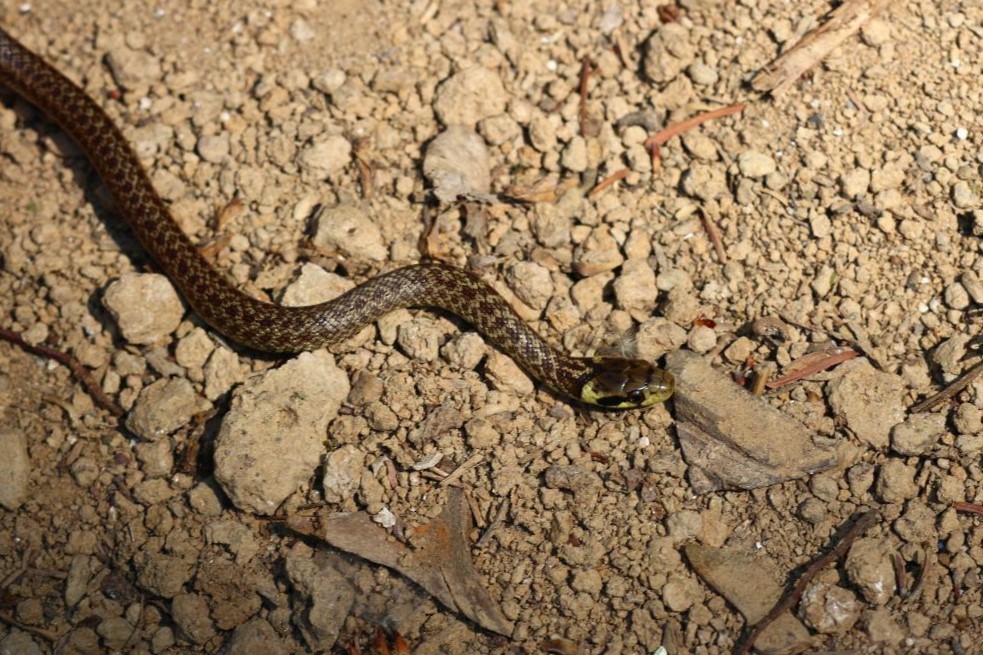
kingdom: Animalia
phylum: Chordata
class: Squamata
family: Colubridae
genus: Zamenis
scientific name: Zamenis longissimus
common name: Aesculapean snake
